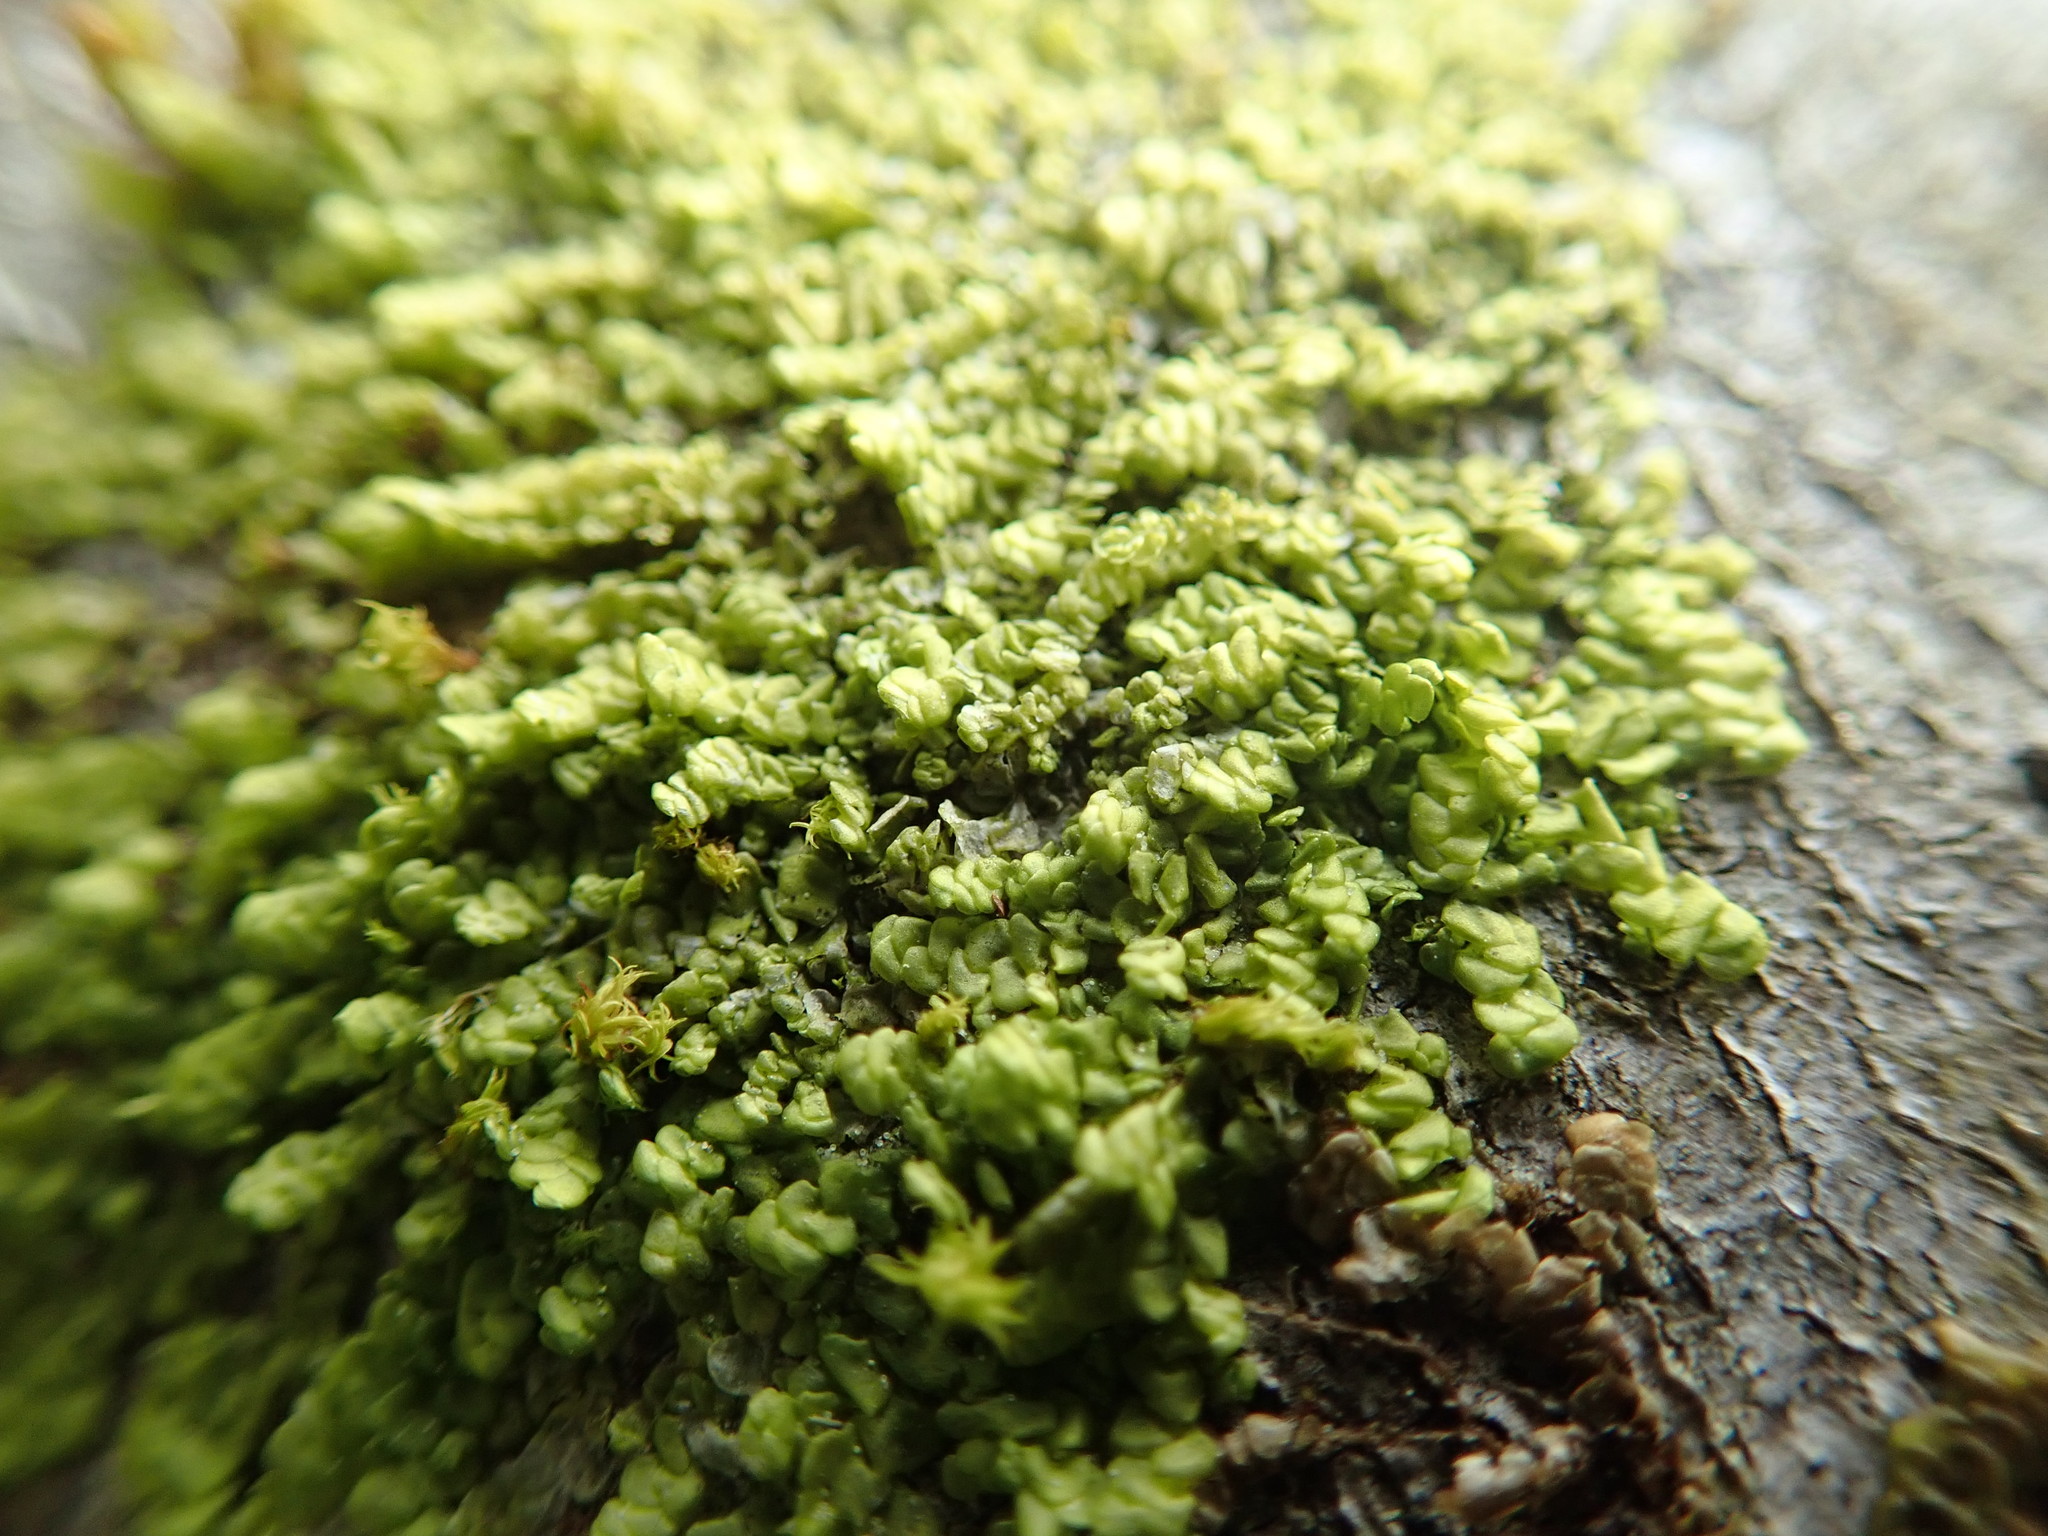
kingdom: Plantae
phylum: Marchantiophyta
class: Jungermanniopsida
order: Porellales
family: Radulaceae
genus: Radula
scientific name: Radula complanata
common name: Flat-leaved scalewort
